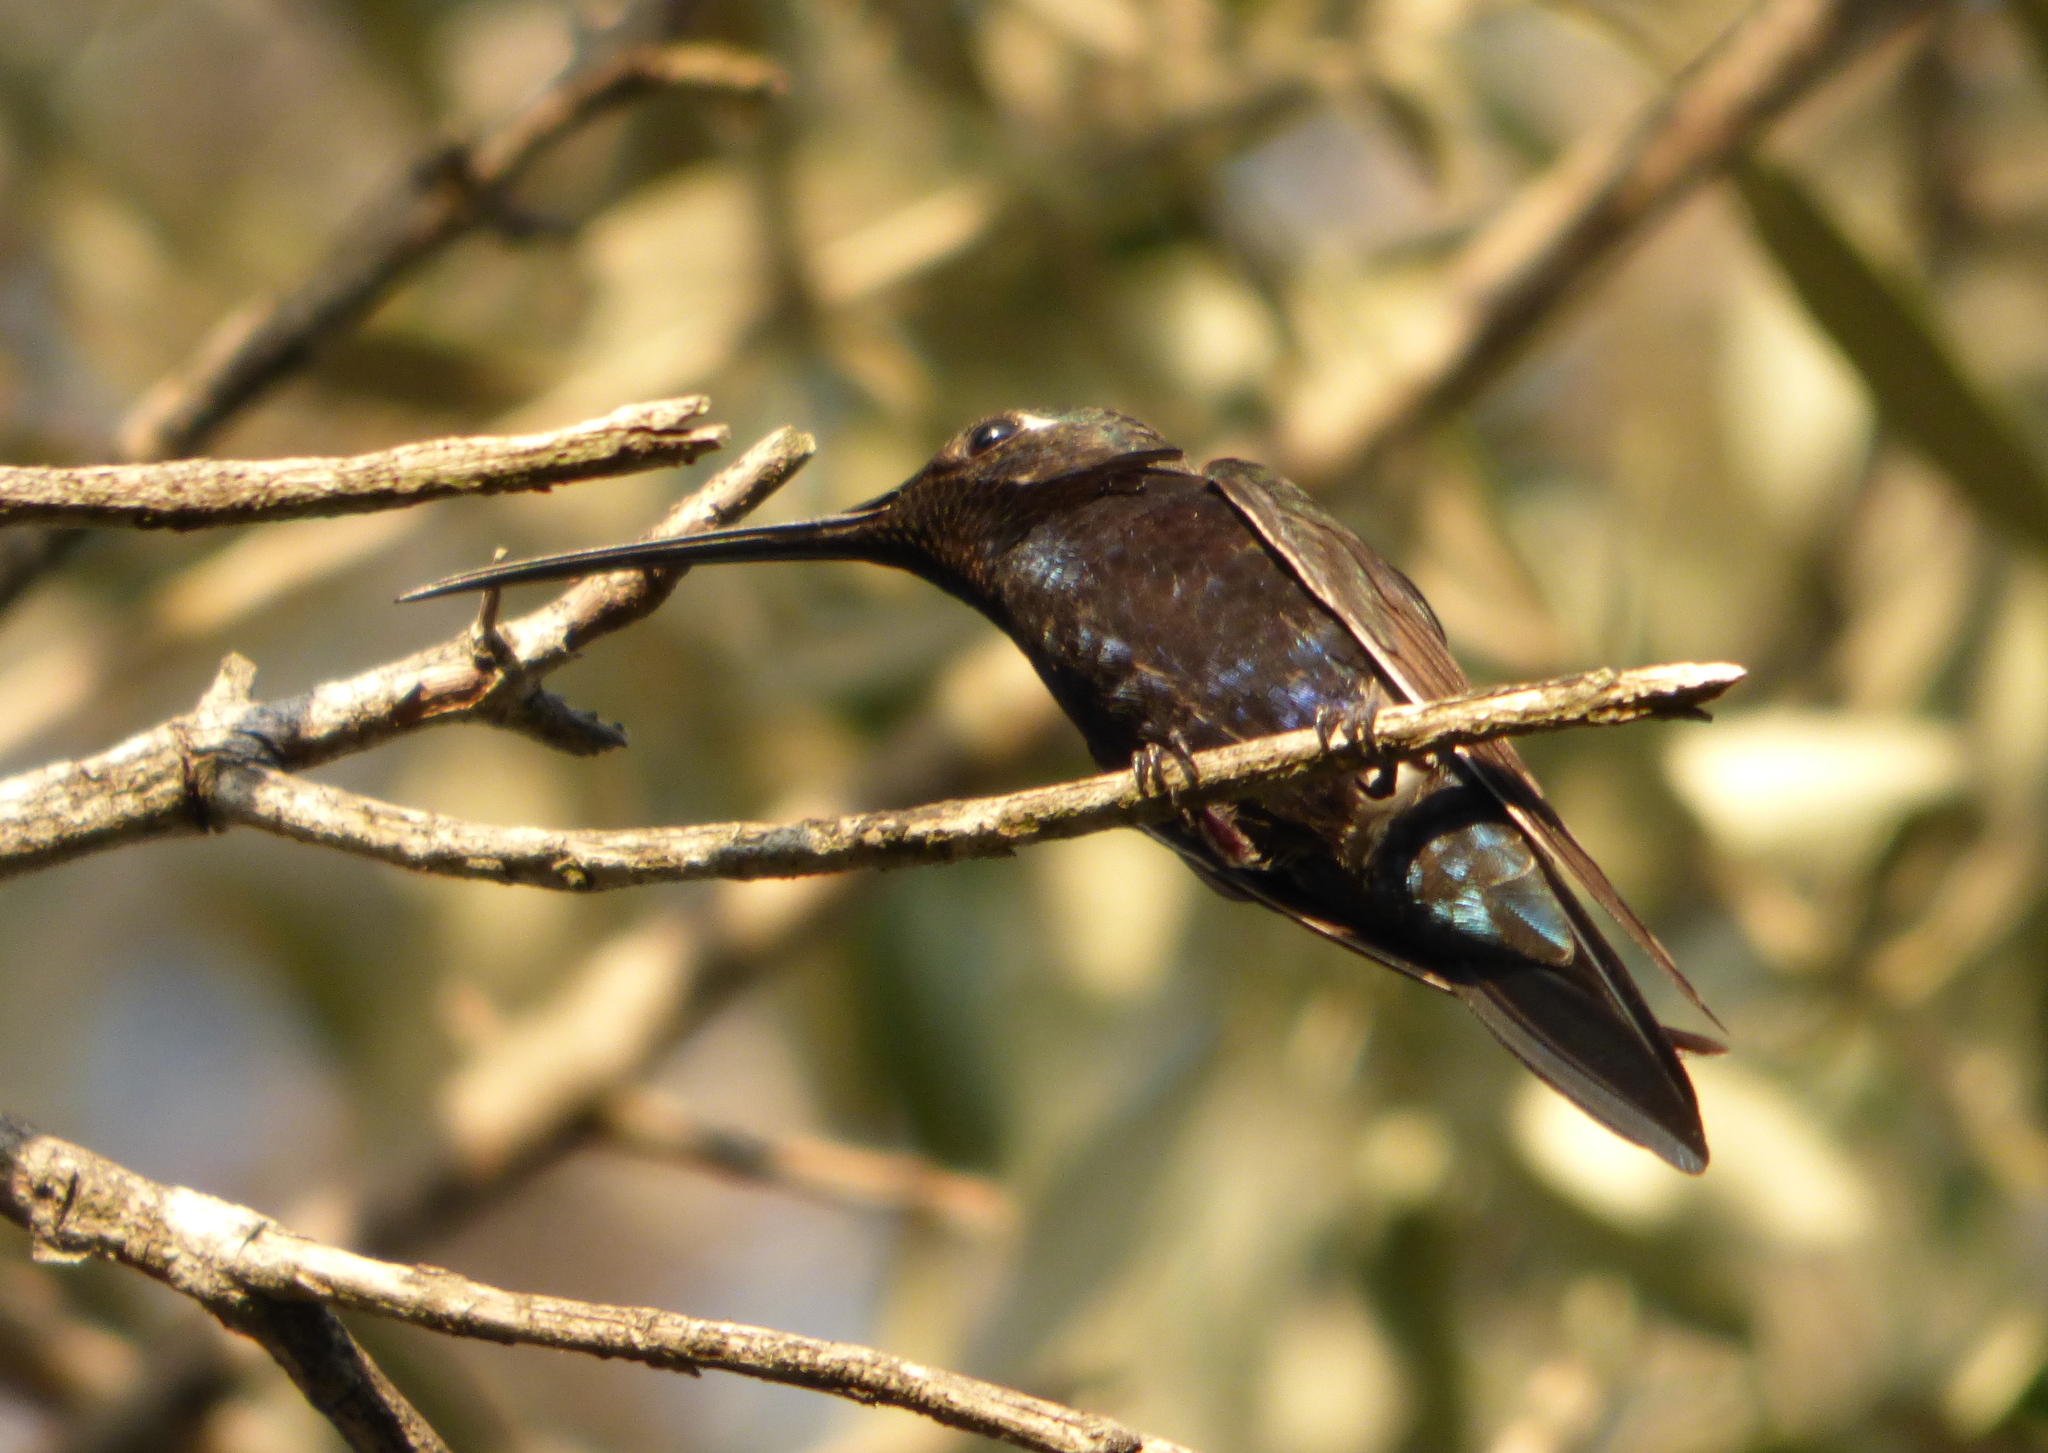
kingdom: Animalia
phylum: Chordata
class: Aves
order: Apodiformes
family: Trochilidae
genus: Heliomaster
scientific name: Heliomaster furcifer
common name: Blue-tufted starthroat
